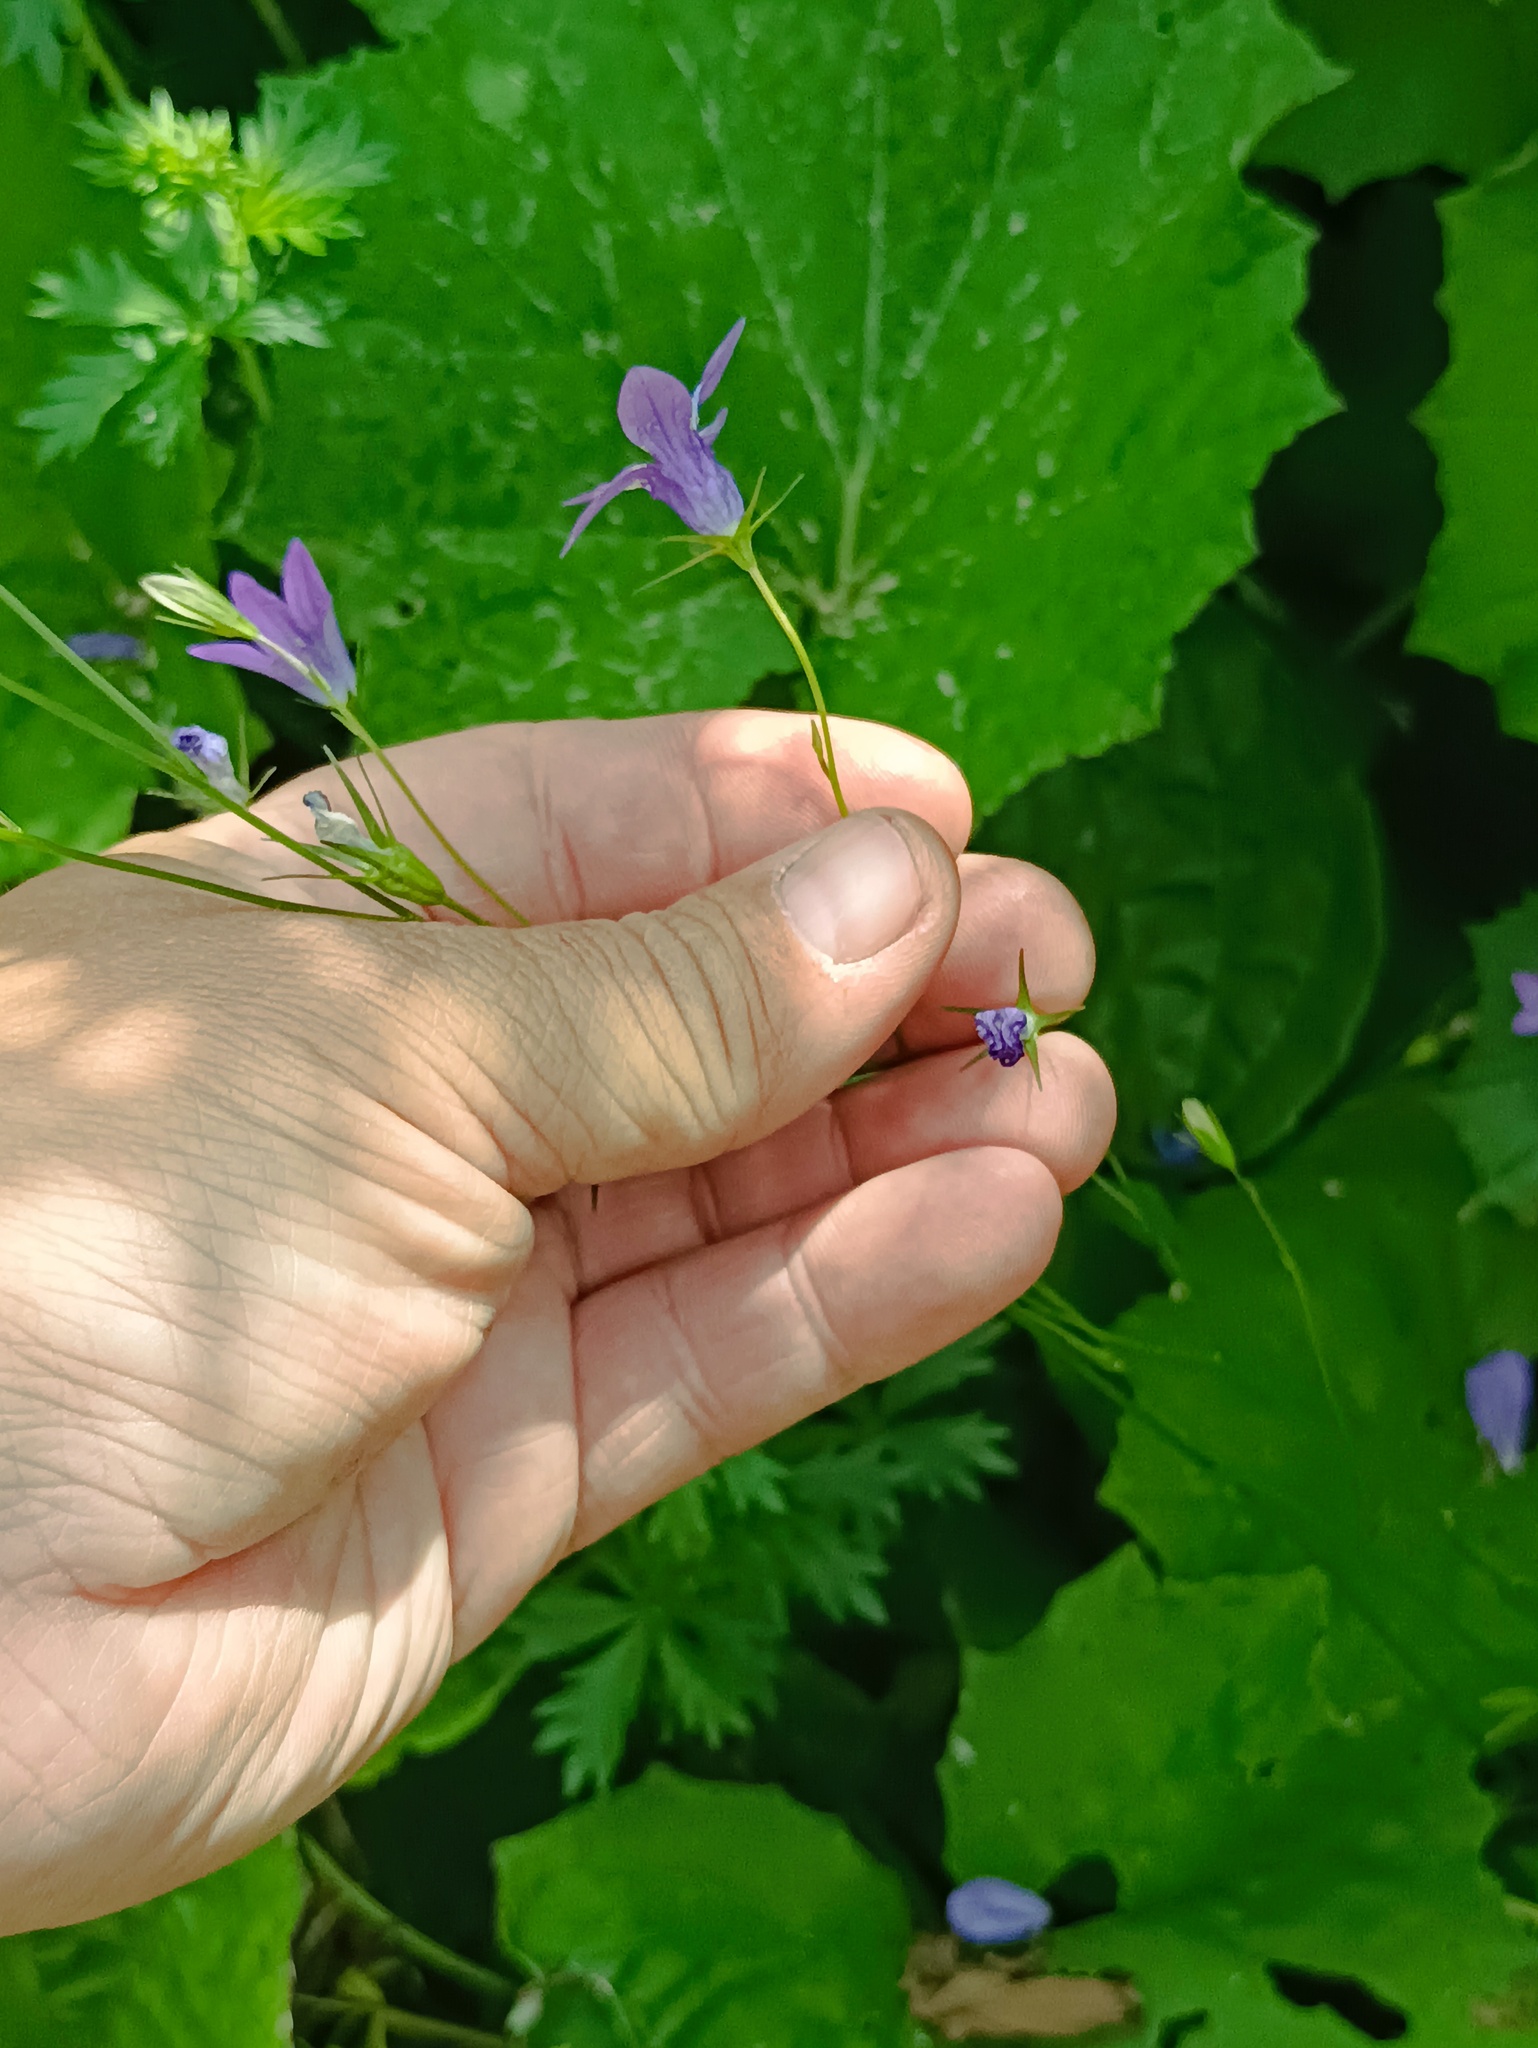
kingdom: Plantae
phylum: Tracheophyta
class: Magnoliopsida
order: Asterales
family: Campanulaceae
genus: Campanula
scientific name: Campanula patula
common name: Spreading bellflower
